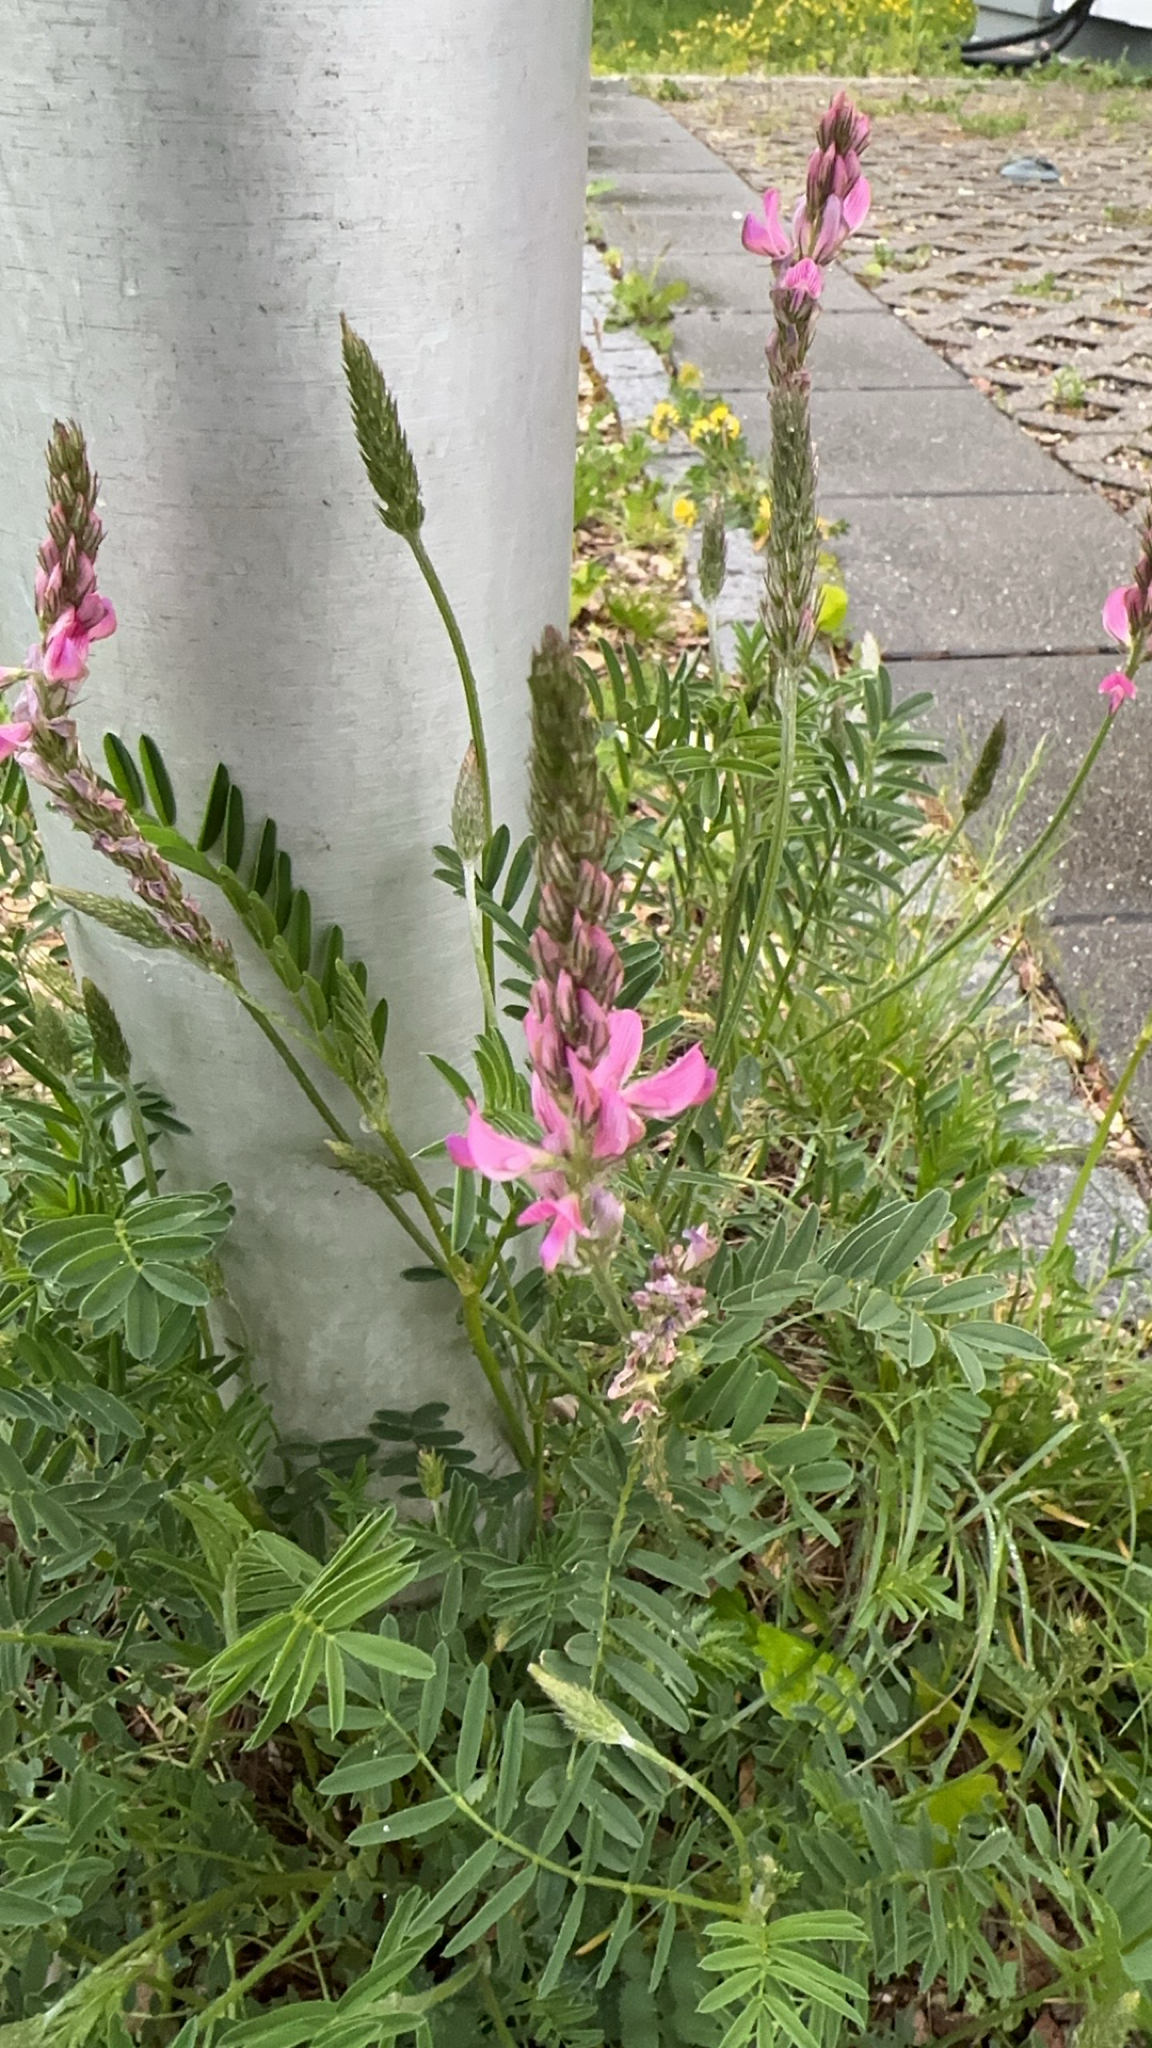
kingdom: Plantae
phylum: Tracheophyta
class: Magnoliopsida
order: Fabales
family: Fabaceae
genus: Onobrychis
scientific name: Onobrychis viciifolia
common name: Sainfoin
